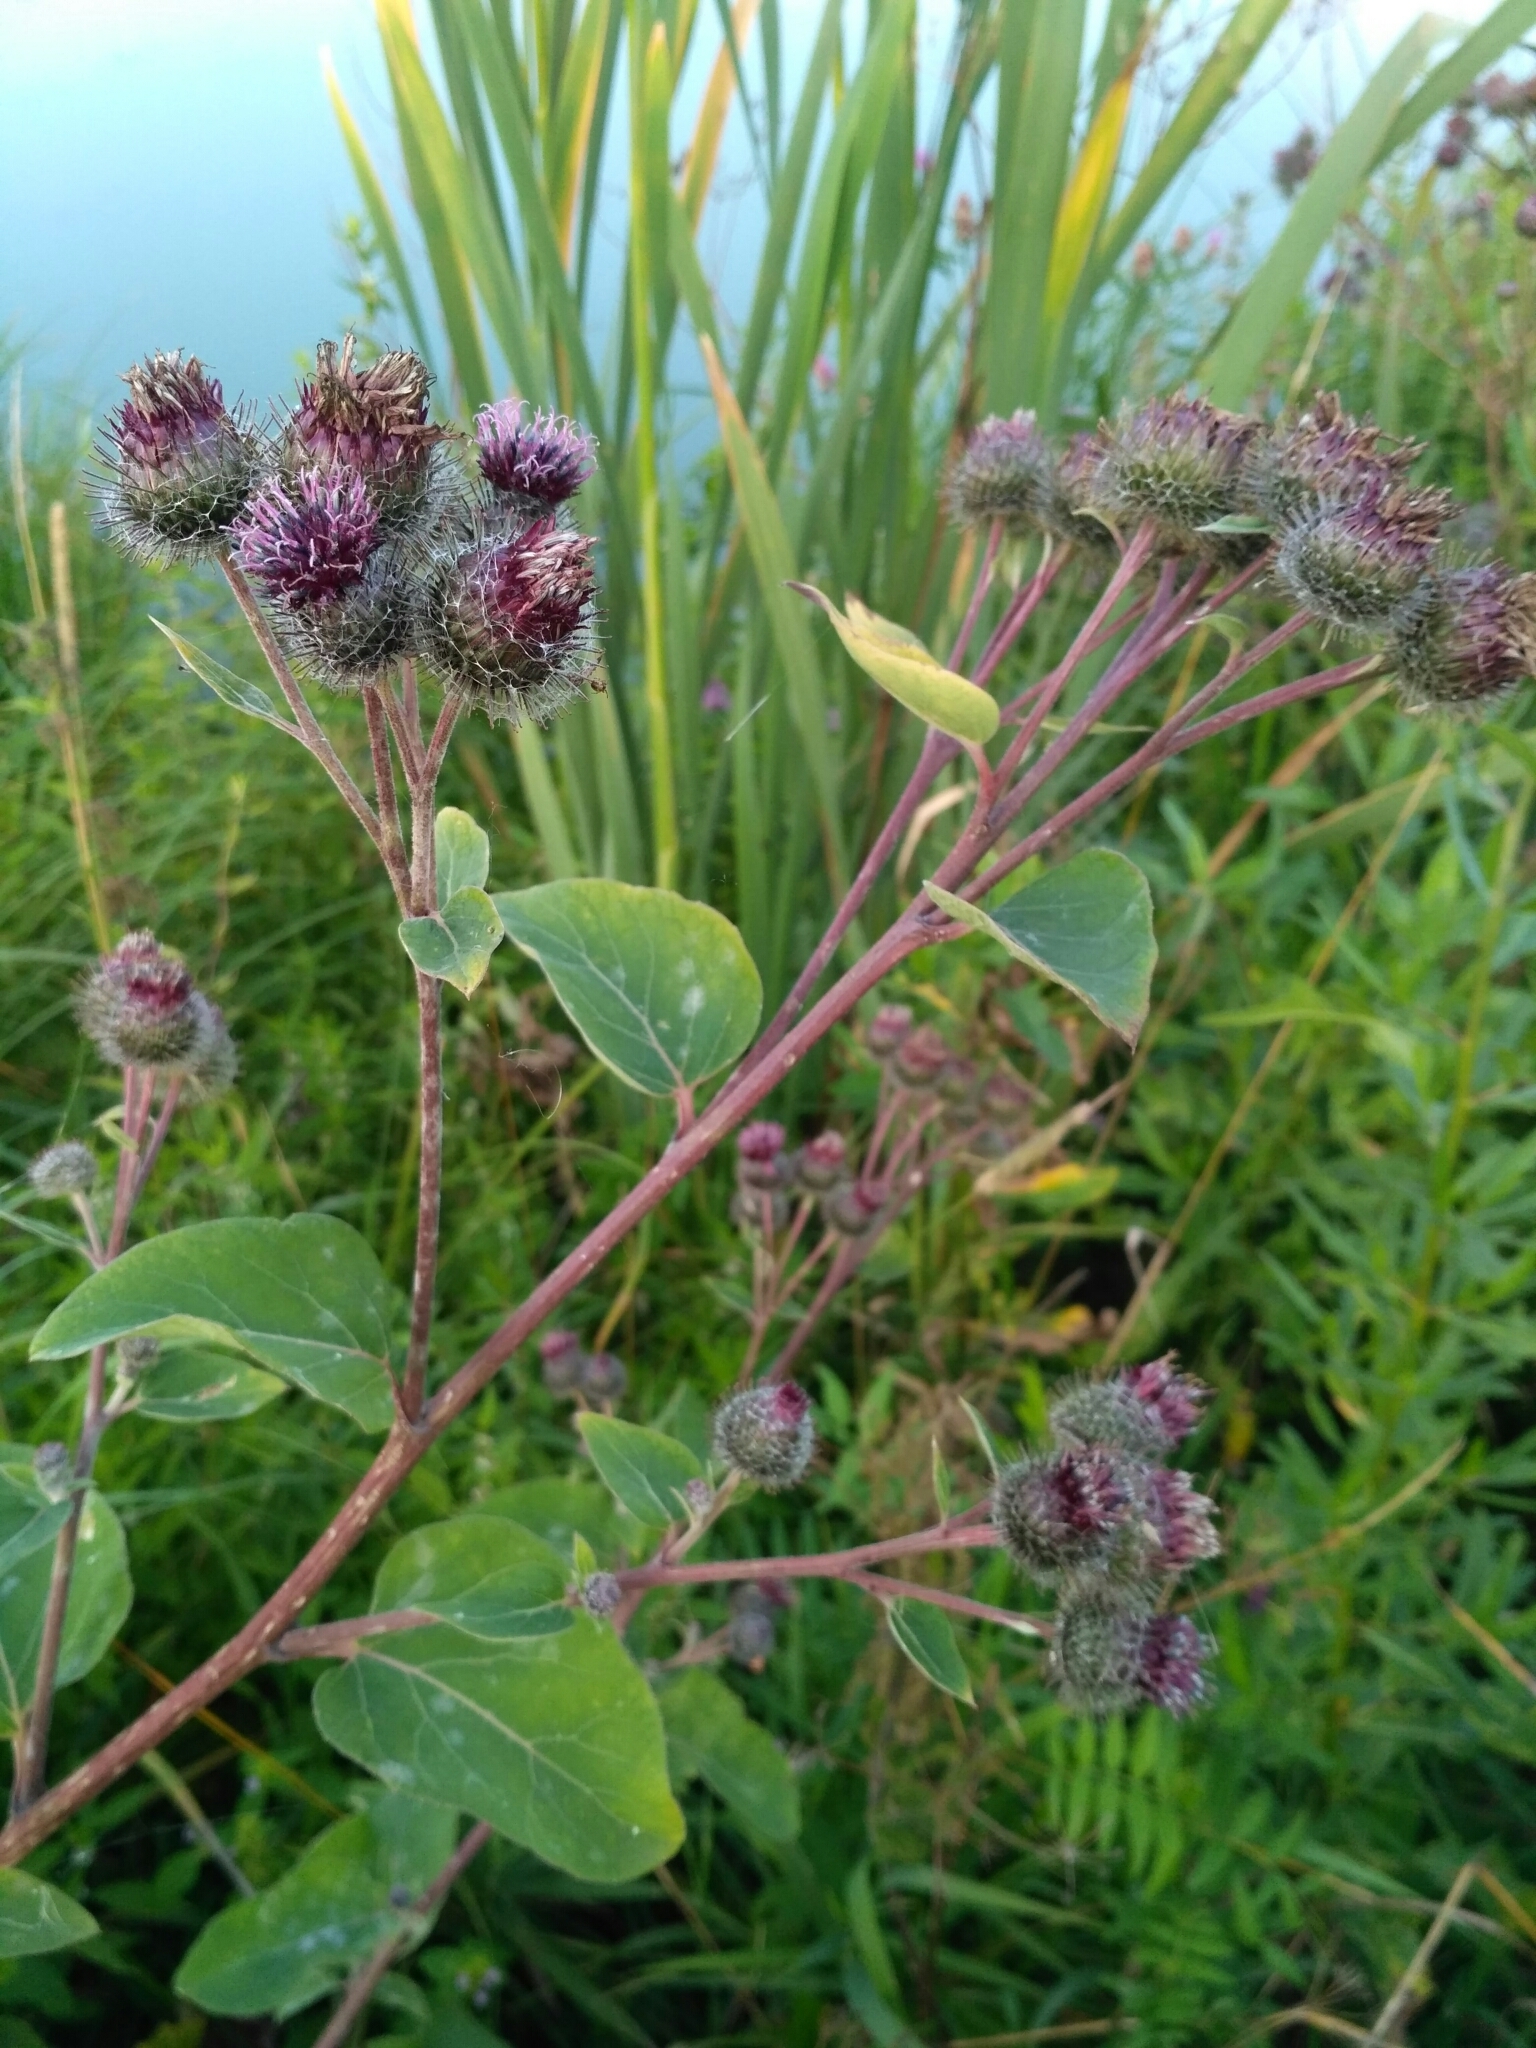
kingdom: Plantae
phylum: Tracheophyta
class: Magnoliopsida
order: Asterales
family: Asteraceae
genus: Arctium
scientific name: Arctium tomentosum
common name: Woolly burdock
